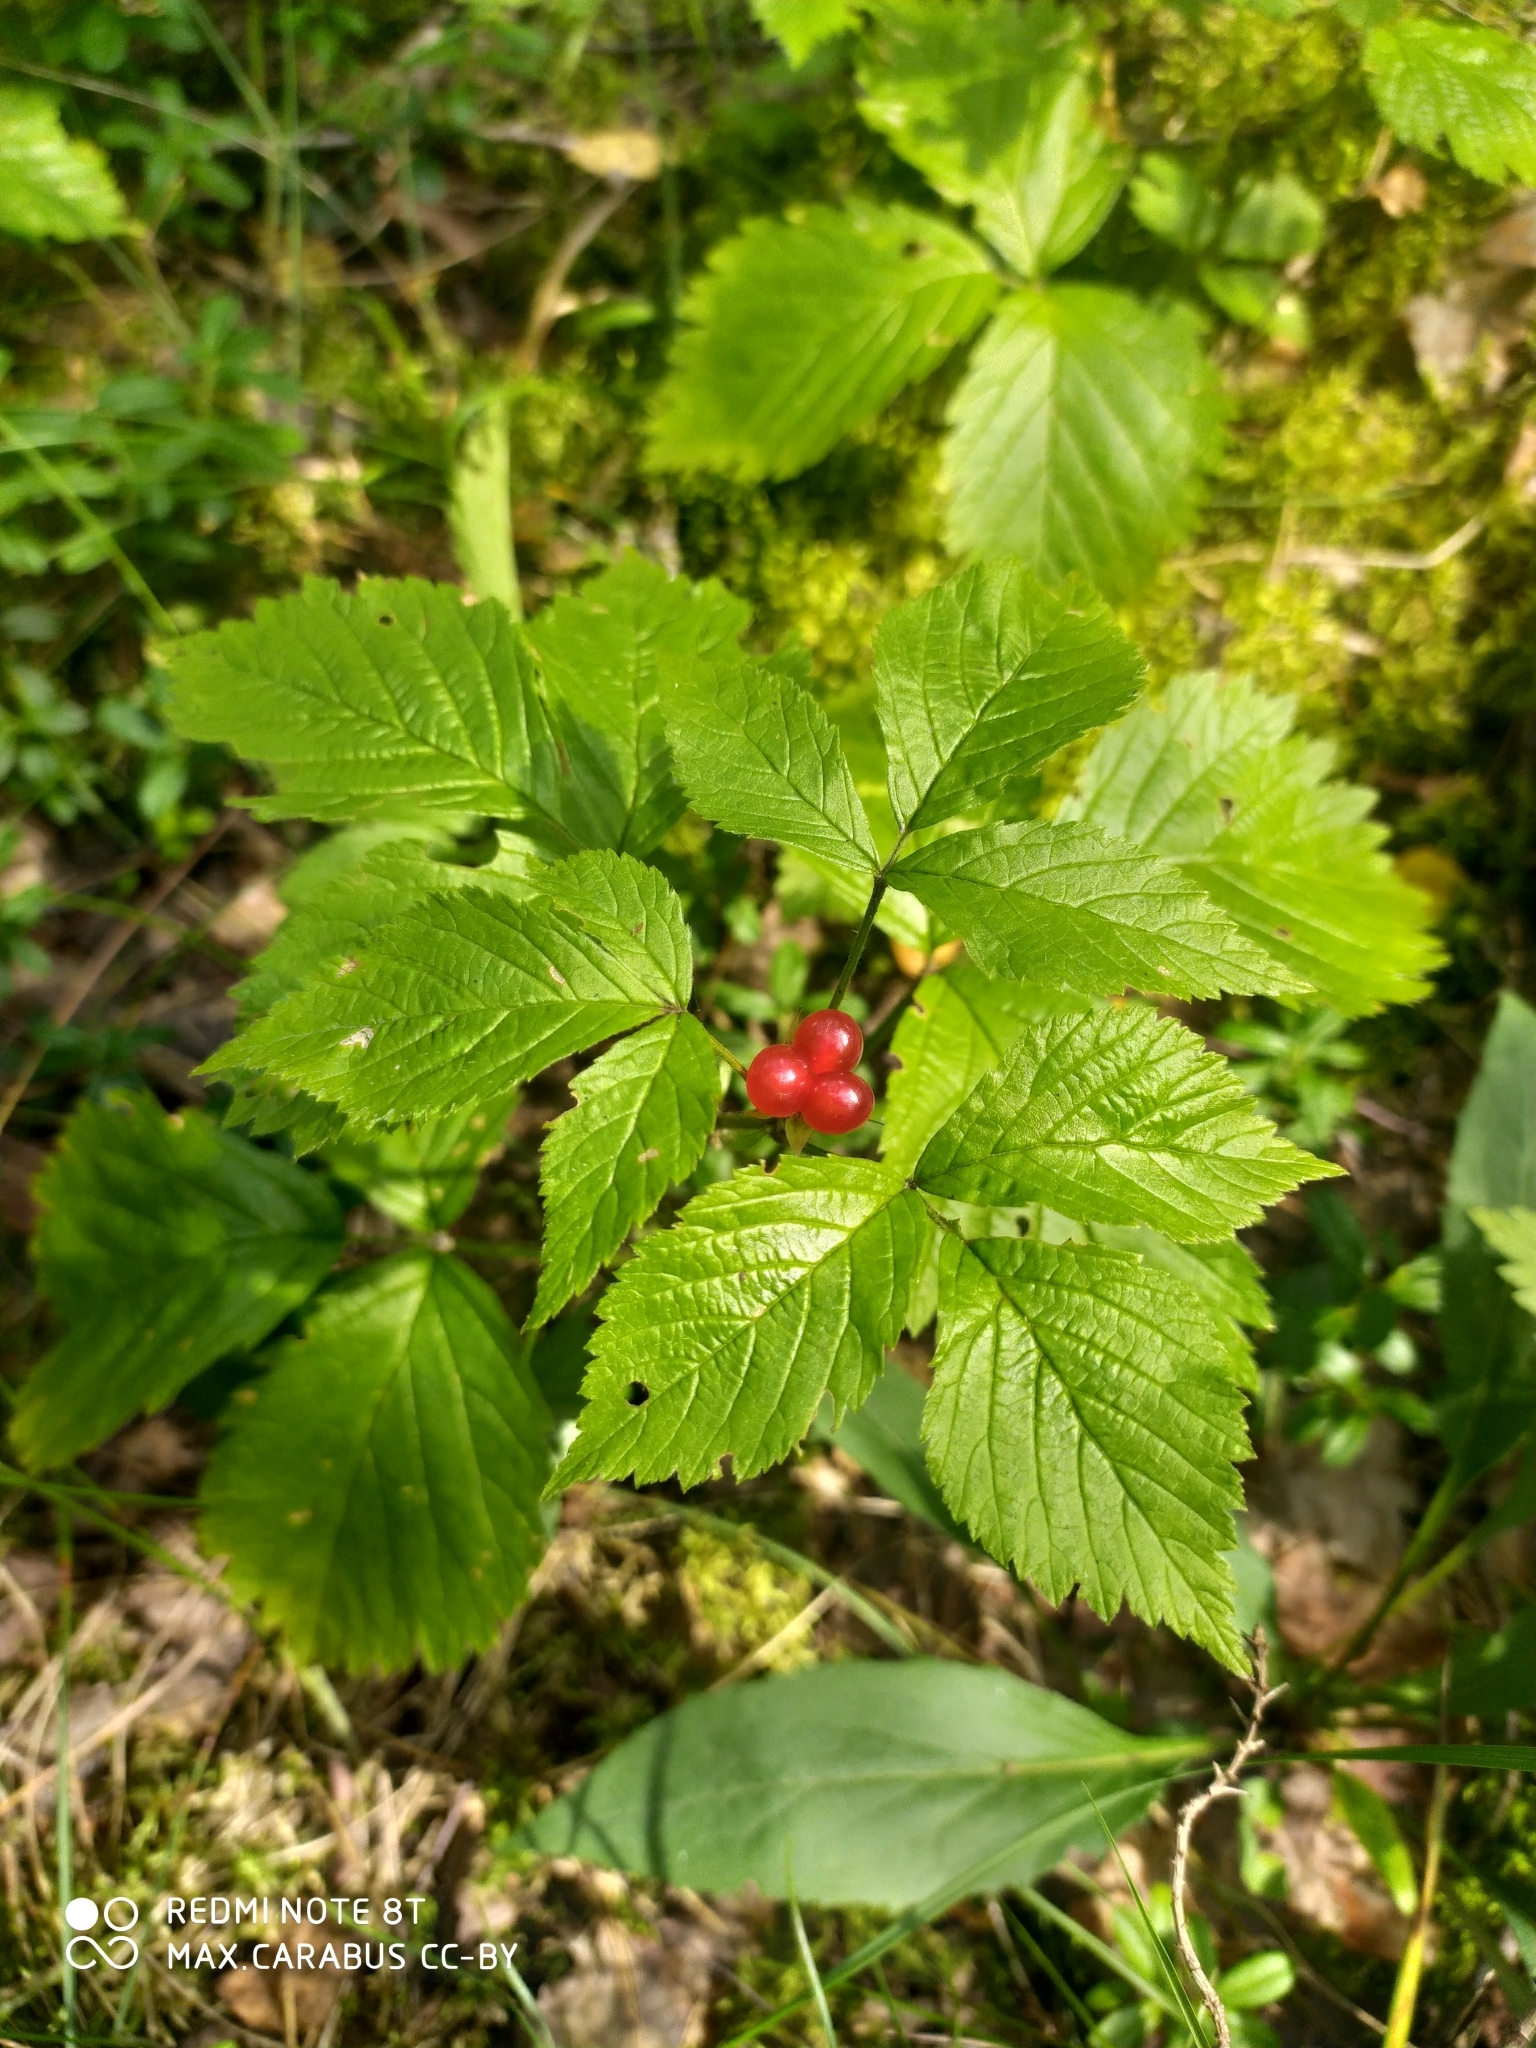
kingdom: Plantae
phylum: Tracheophyta
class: Magnoliopsida
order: Rosales
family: Rosaceae
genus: Rubus
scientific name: Rubus saxatilis
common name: Stone bramble
